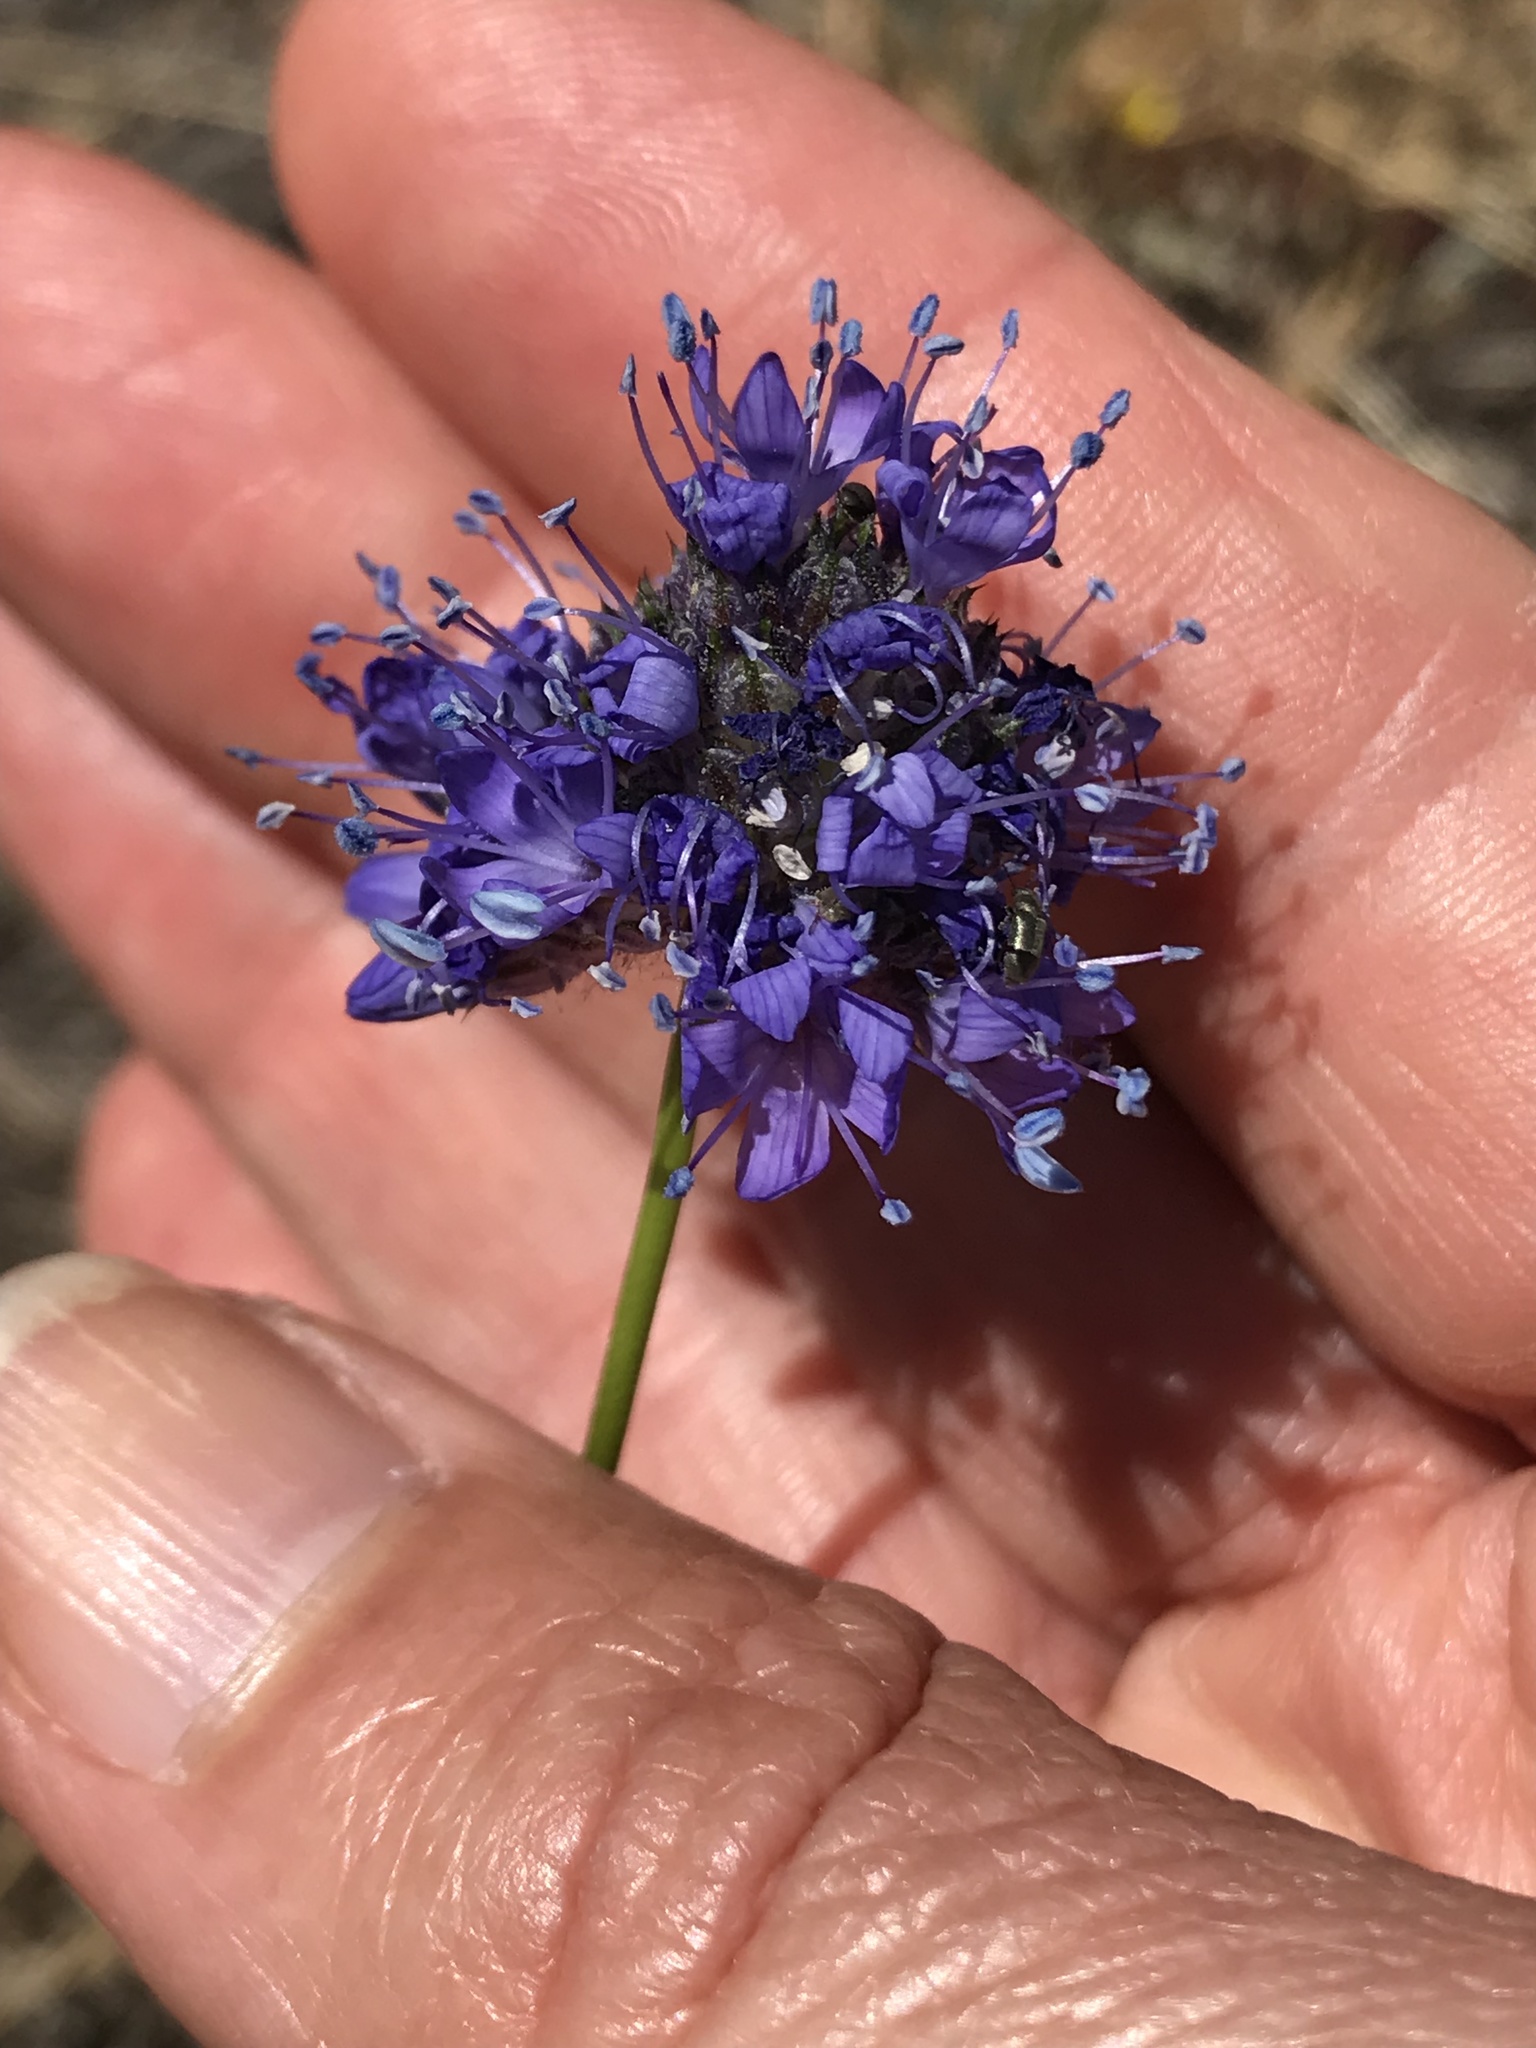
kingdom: Plantae
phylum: Tracheophyta
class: Magnoliopsida
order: Ericales
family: Polemoniaceae
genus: Gilia
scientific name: Gilia capitata
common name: Bluehead gilia
